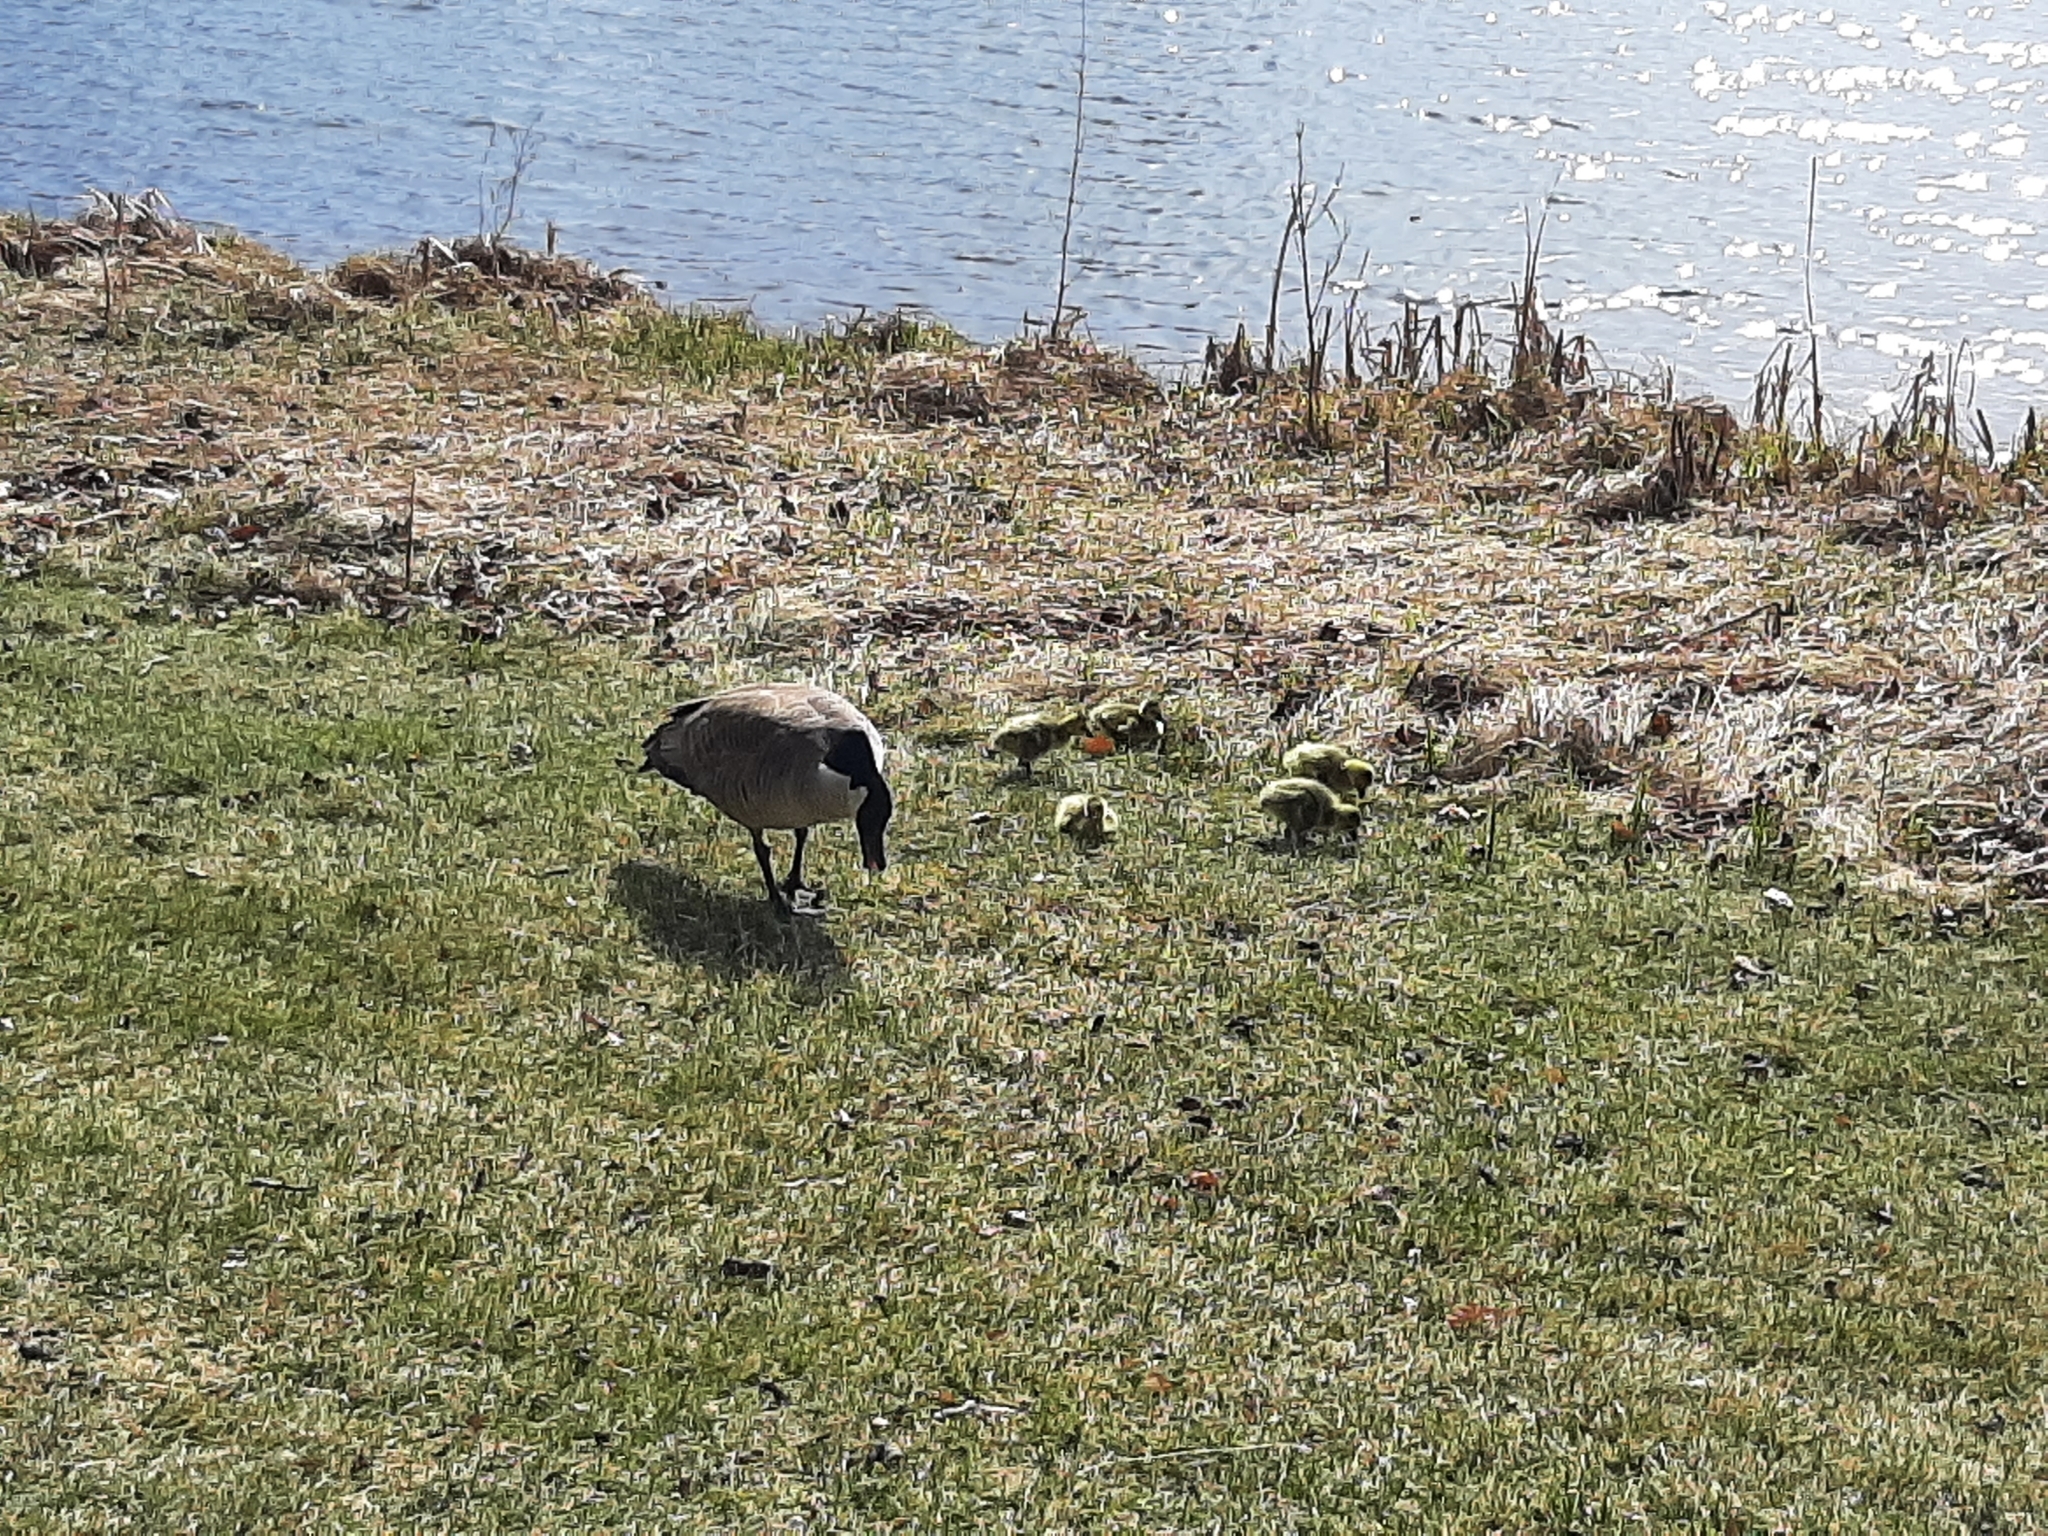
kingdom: Animalia
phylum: Chordata
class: Aves
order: Anseriformes
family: Anatidae
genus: Branta
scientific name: Branta canadensis
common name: Canada goose
